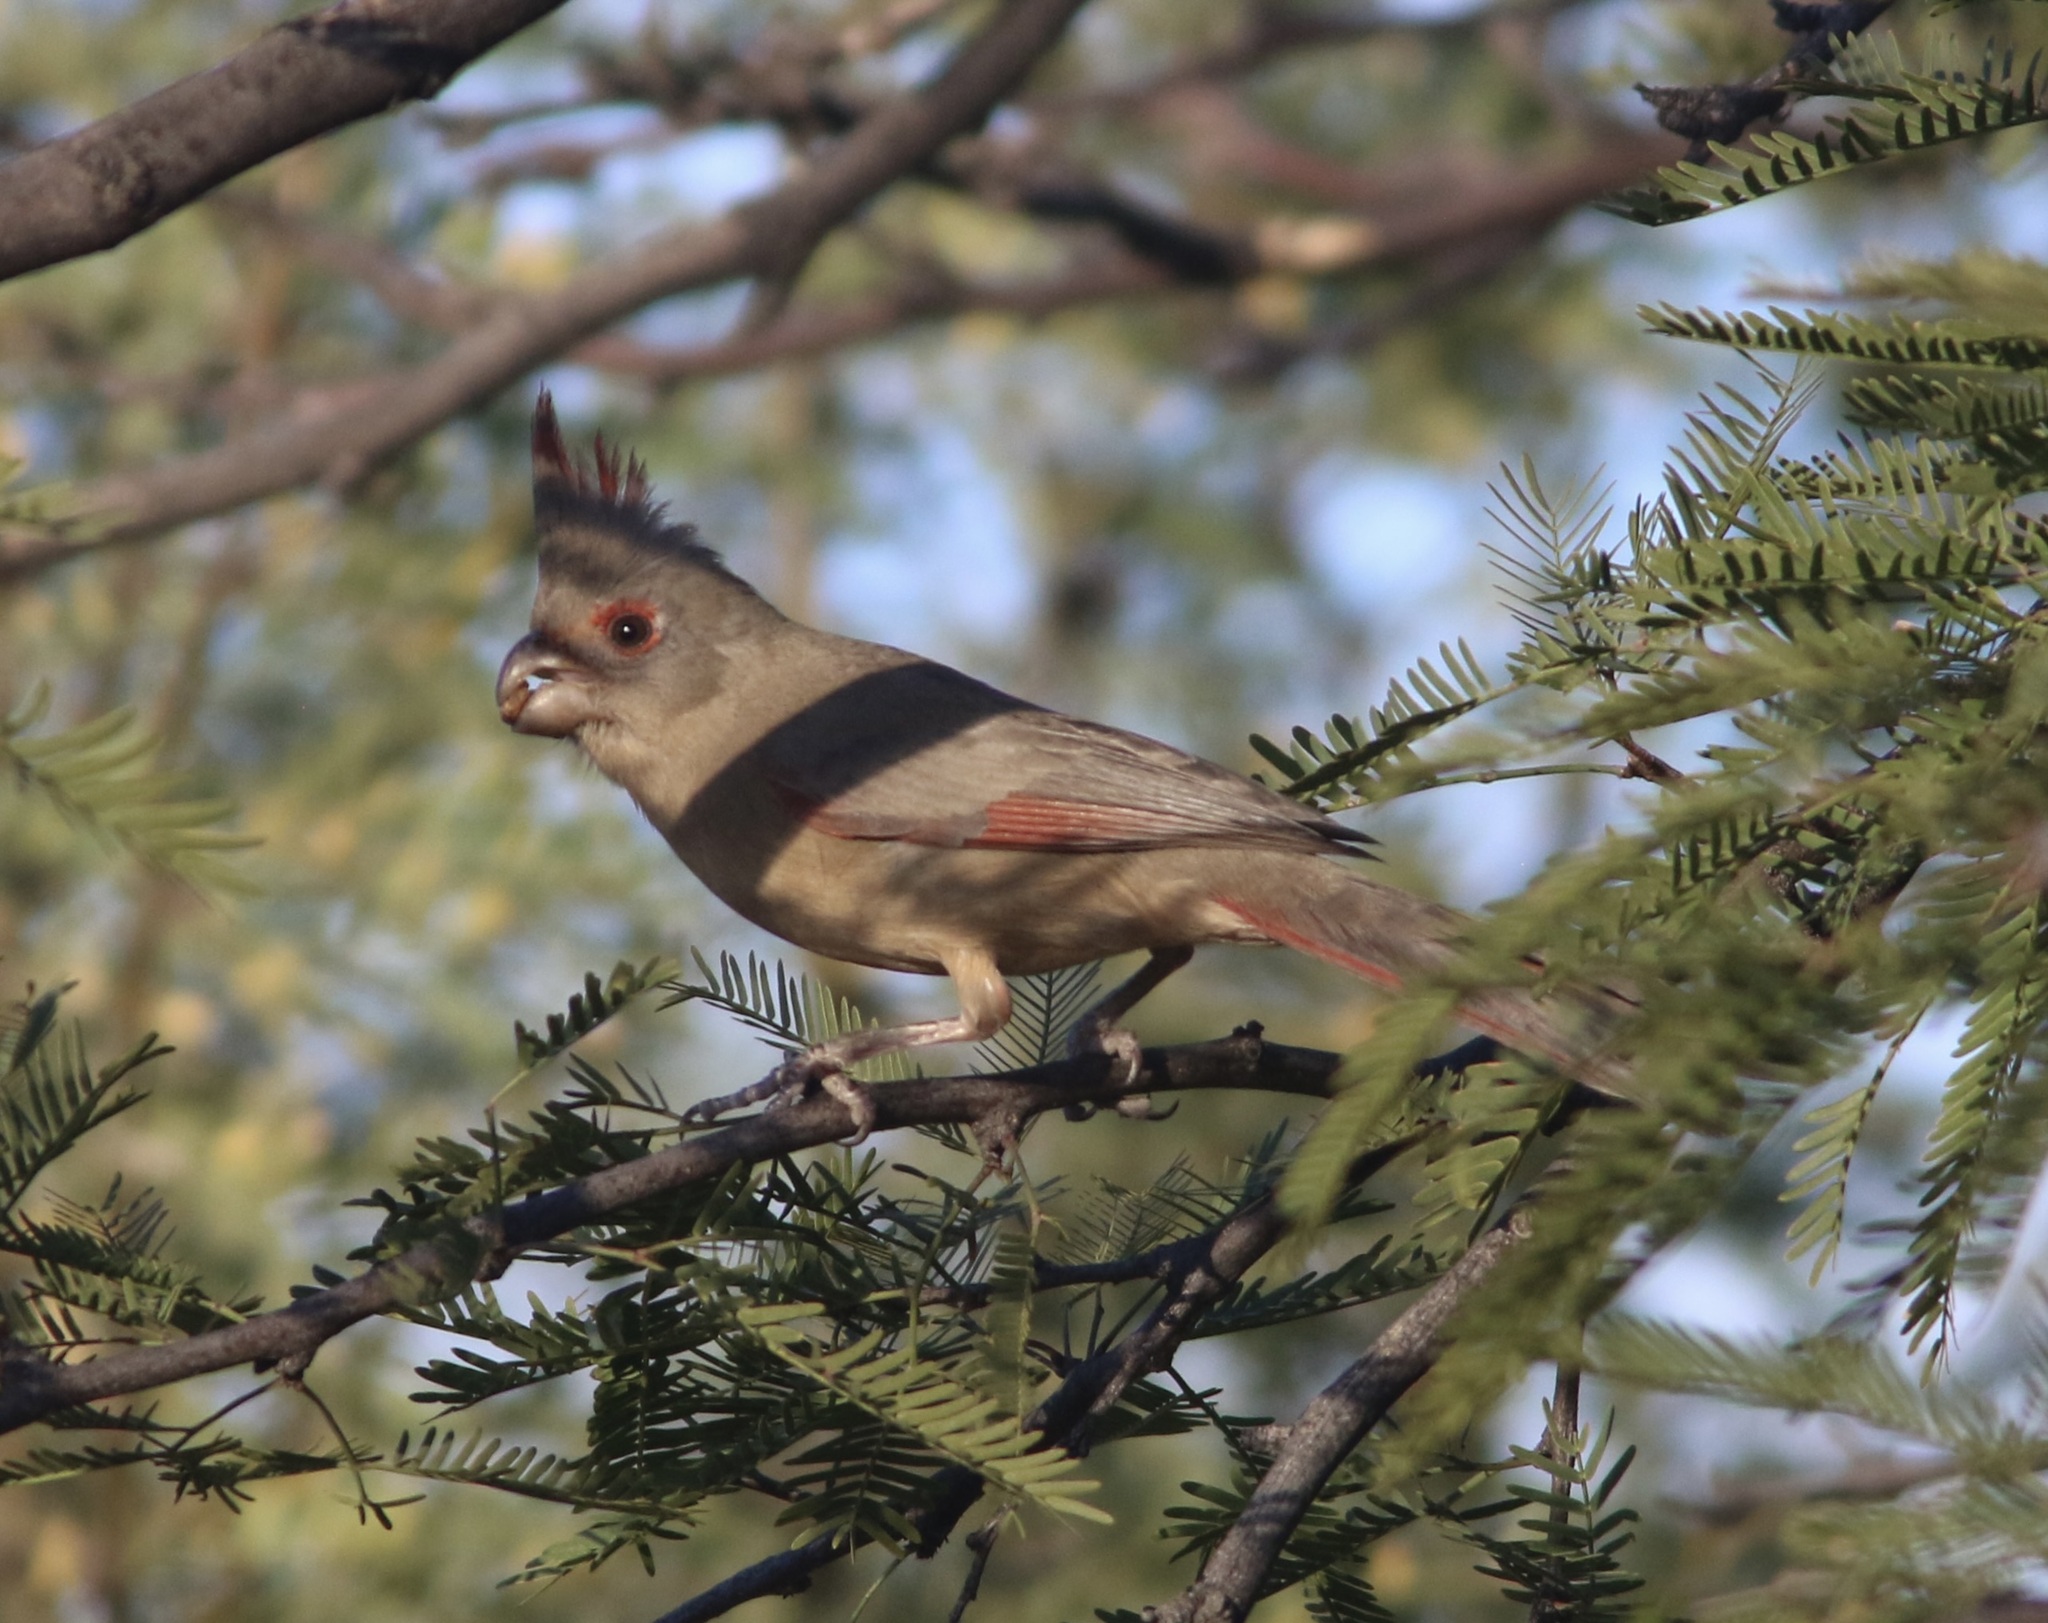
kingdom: Animalia
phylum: Chordata
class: Aves
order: Passeriformes
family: Cardinalidae
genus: Cardinalis
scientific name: Cardinalis sinuatus
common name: Pyrrhuloxia
